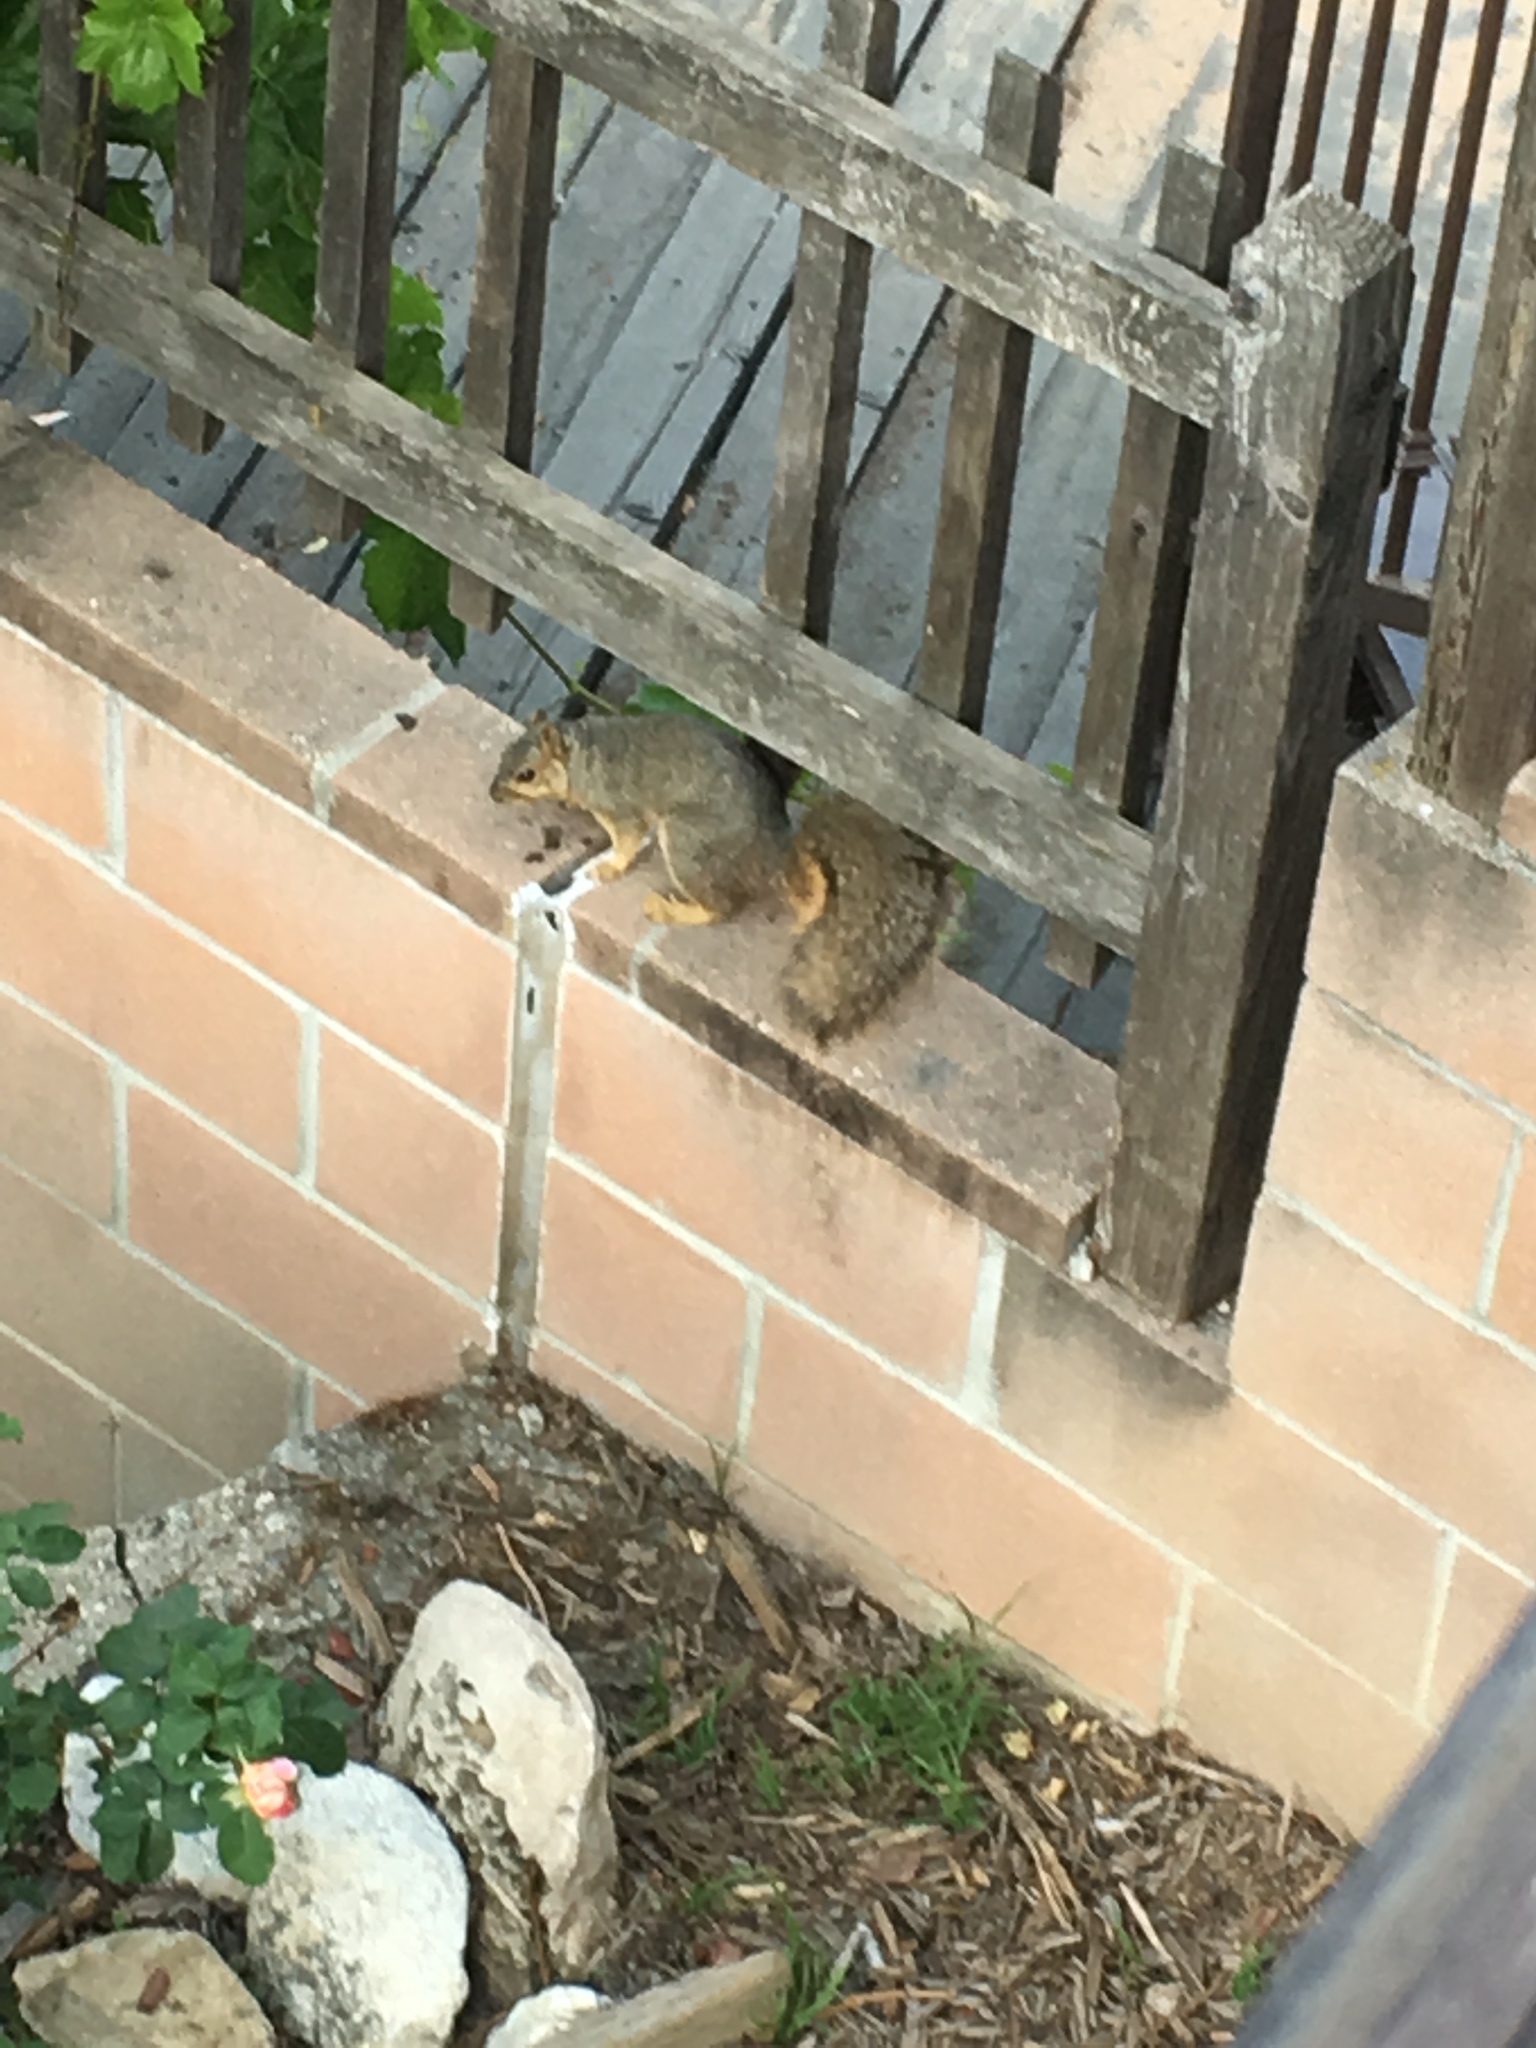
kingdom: Animalia
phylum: Chordata
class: Mammalia
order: Rodentia
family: Sciuridae
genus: Sciurus
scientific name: Sciurus niger
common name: Fox squirrel
